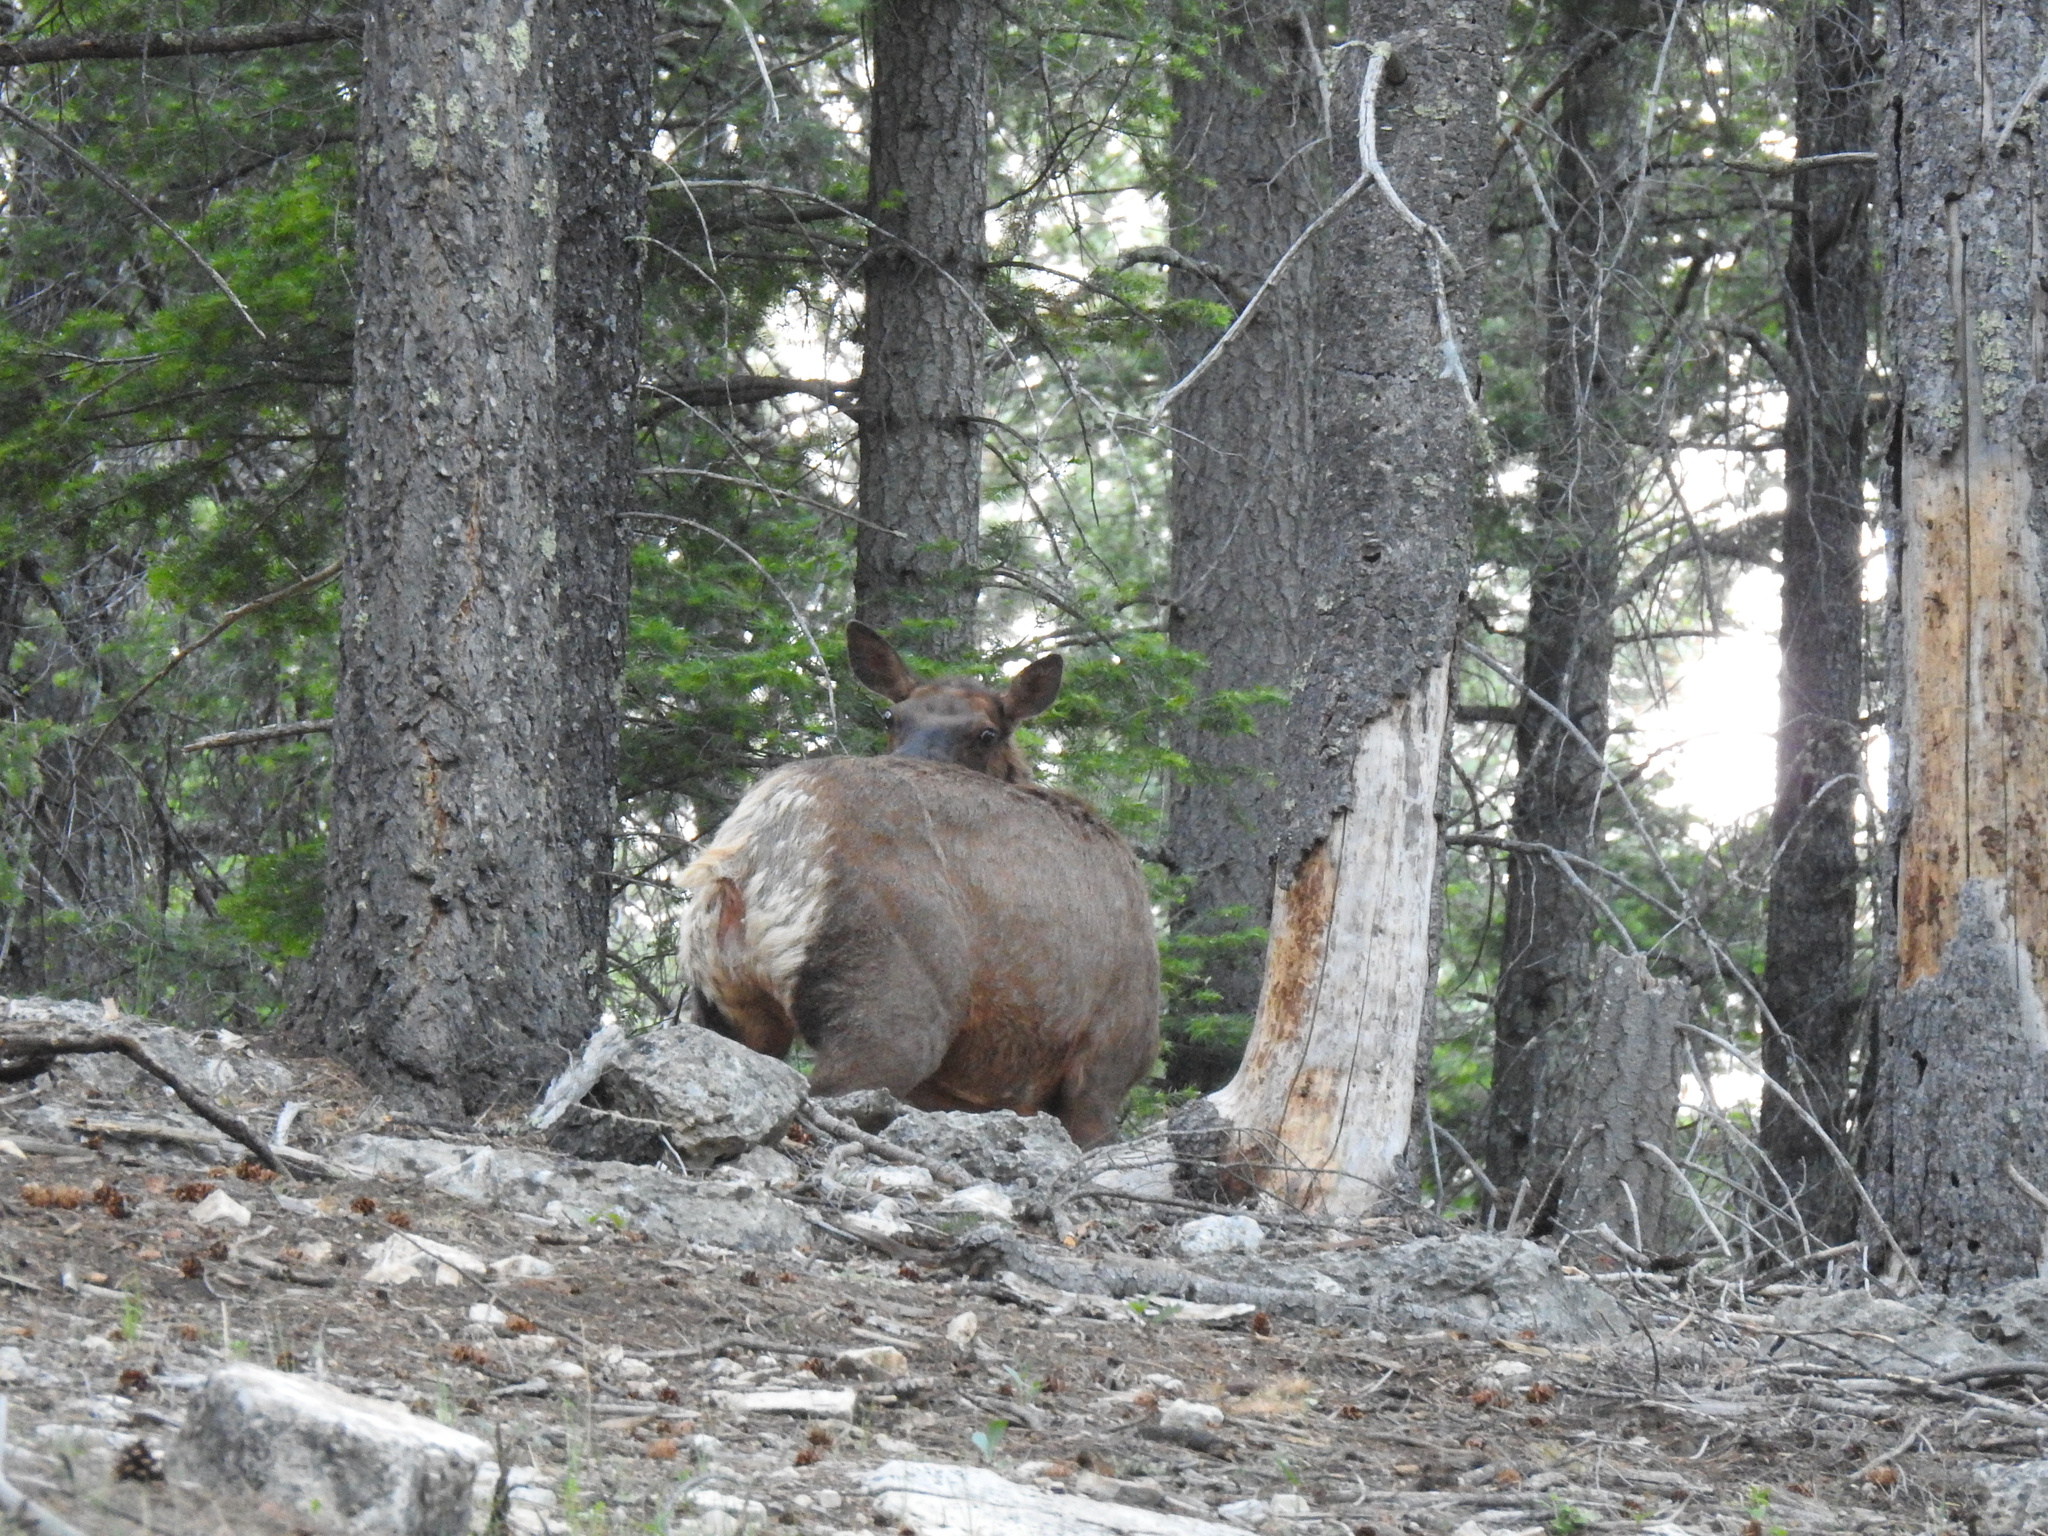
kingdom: Animalia
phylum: Chordata
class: Mammalia
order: Artiodactyla
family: Cervidae
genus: Cervus
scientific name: Cervus elaphus
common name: Red deer
